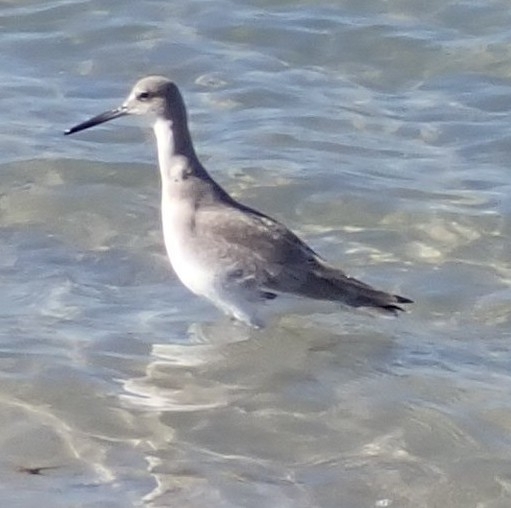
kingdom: Animalia
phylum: Chordata
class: Aves
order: Charadriiformes
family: Scolopacidae
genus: Tringa
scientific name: Tringa semipalmata
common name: Willet
